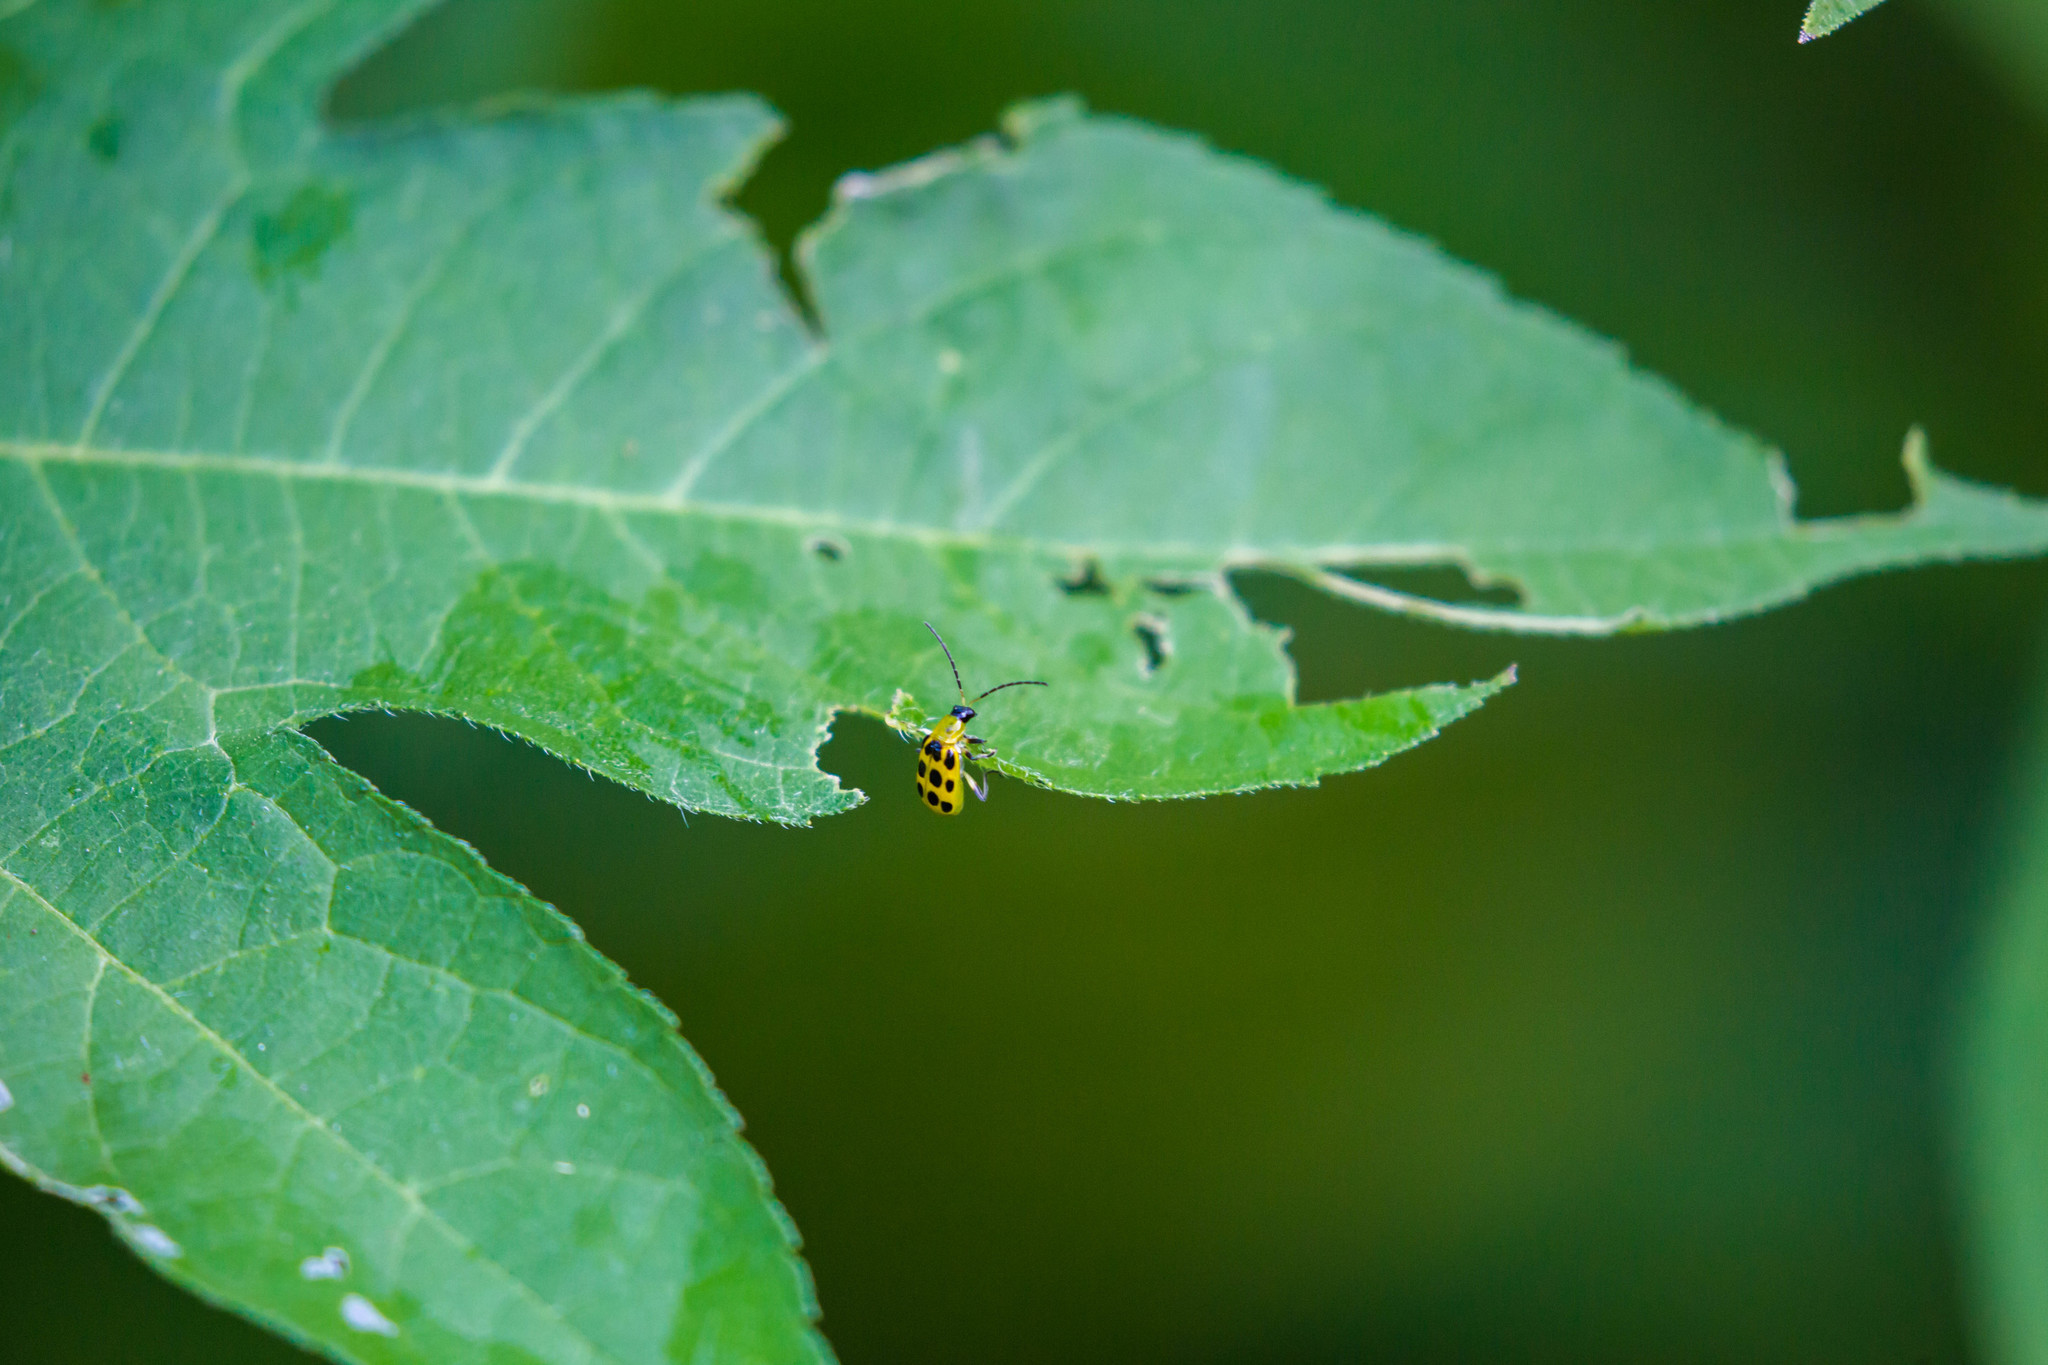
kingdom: Animalia
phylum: Arthropoda
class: Insecta
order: Coleoptera
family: Chrysomelidae
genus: Diabrotica
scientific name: Diabrotica undecimpunctata
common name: Spotted cucumber beetle
